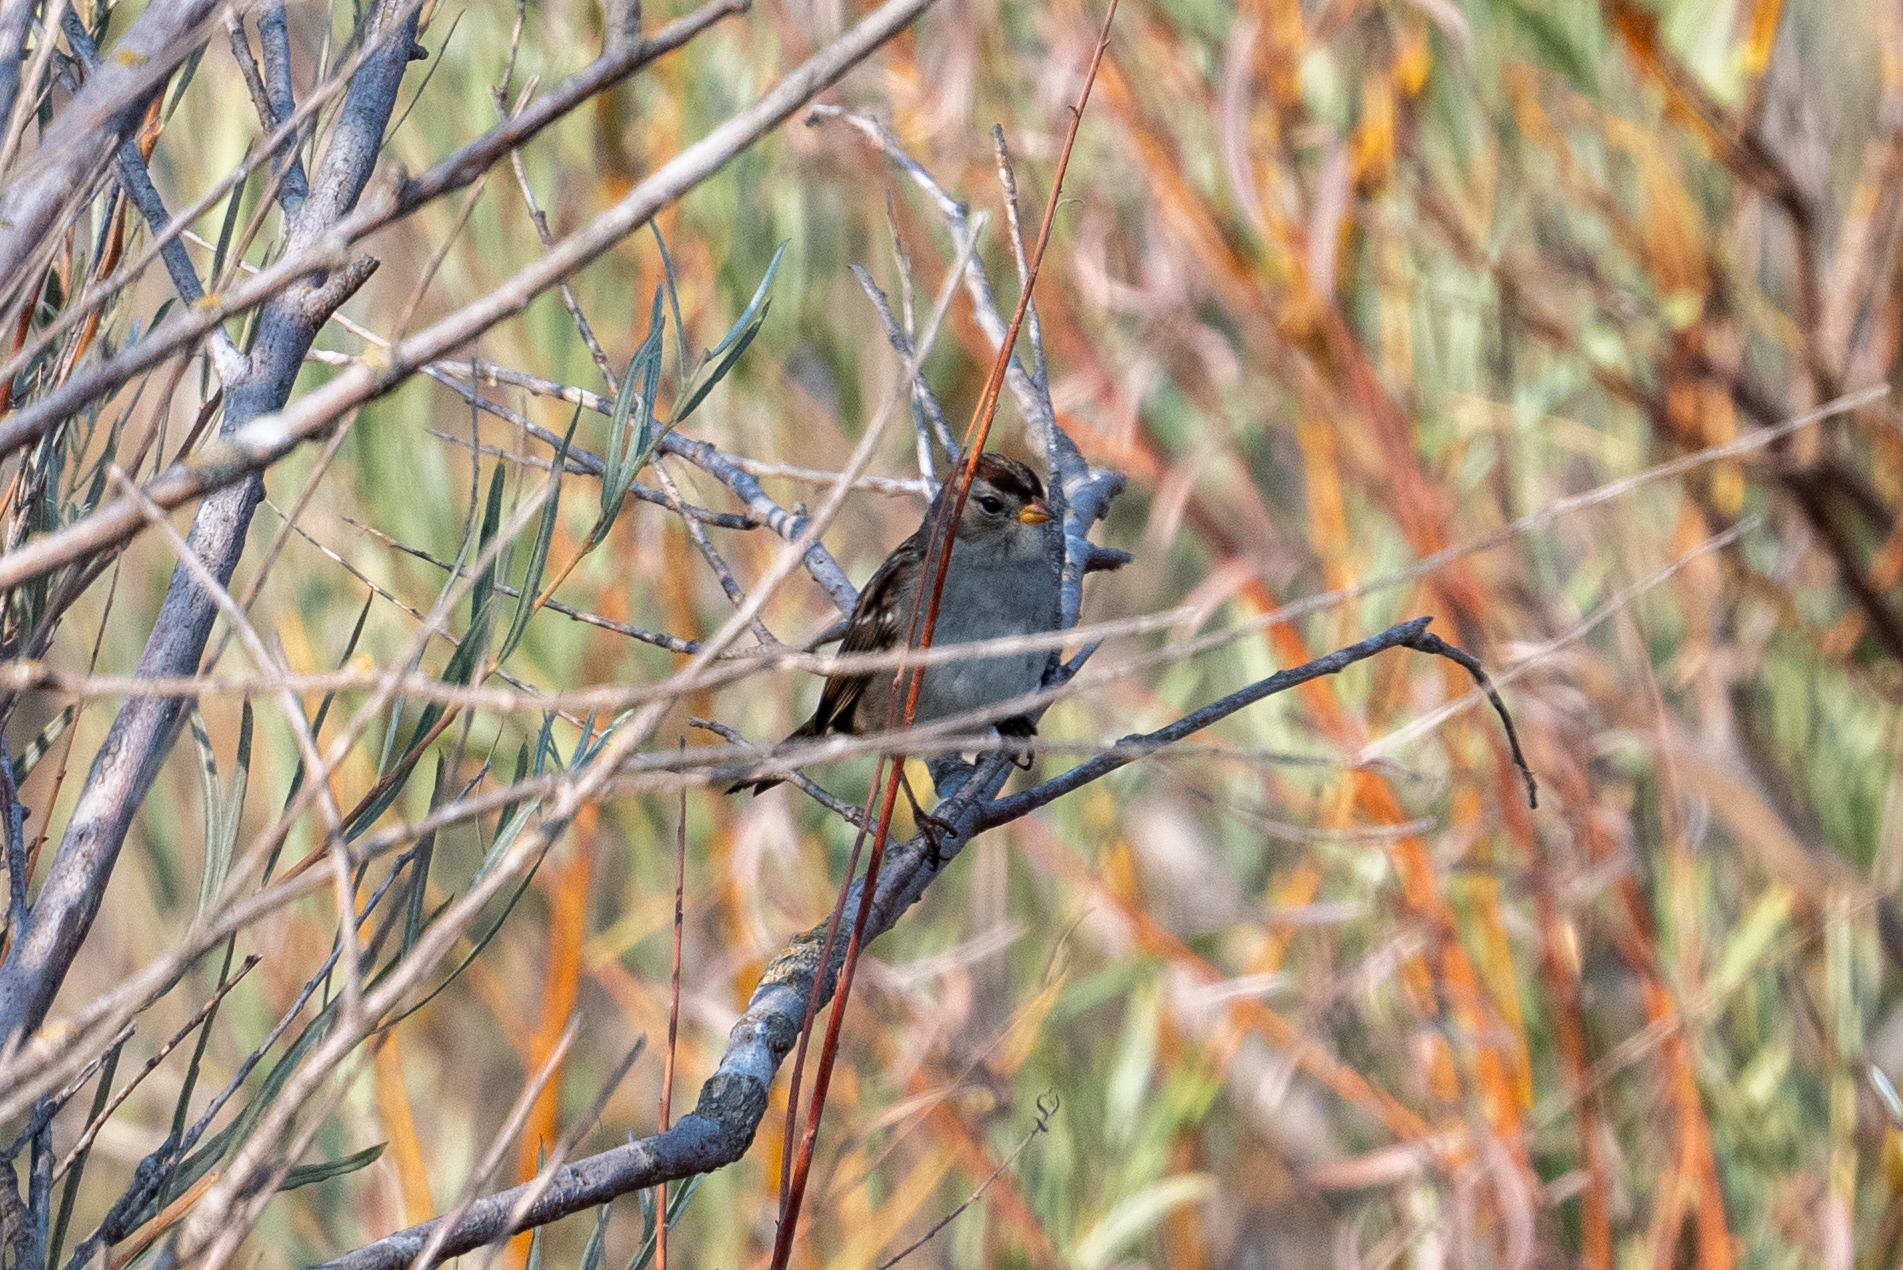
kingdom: Animalia
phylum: Chordata
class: Aves
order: Passeriformes
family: Passerellidae
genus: Zonotrichia
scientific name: Zonotrichia leucophrys
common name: White-crowned sparrow
